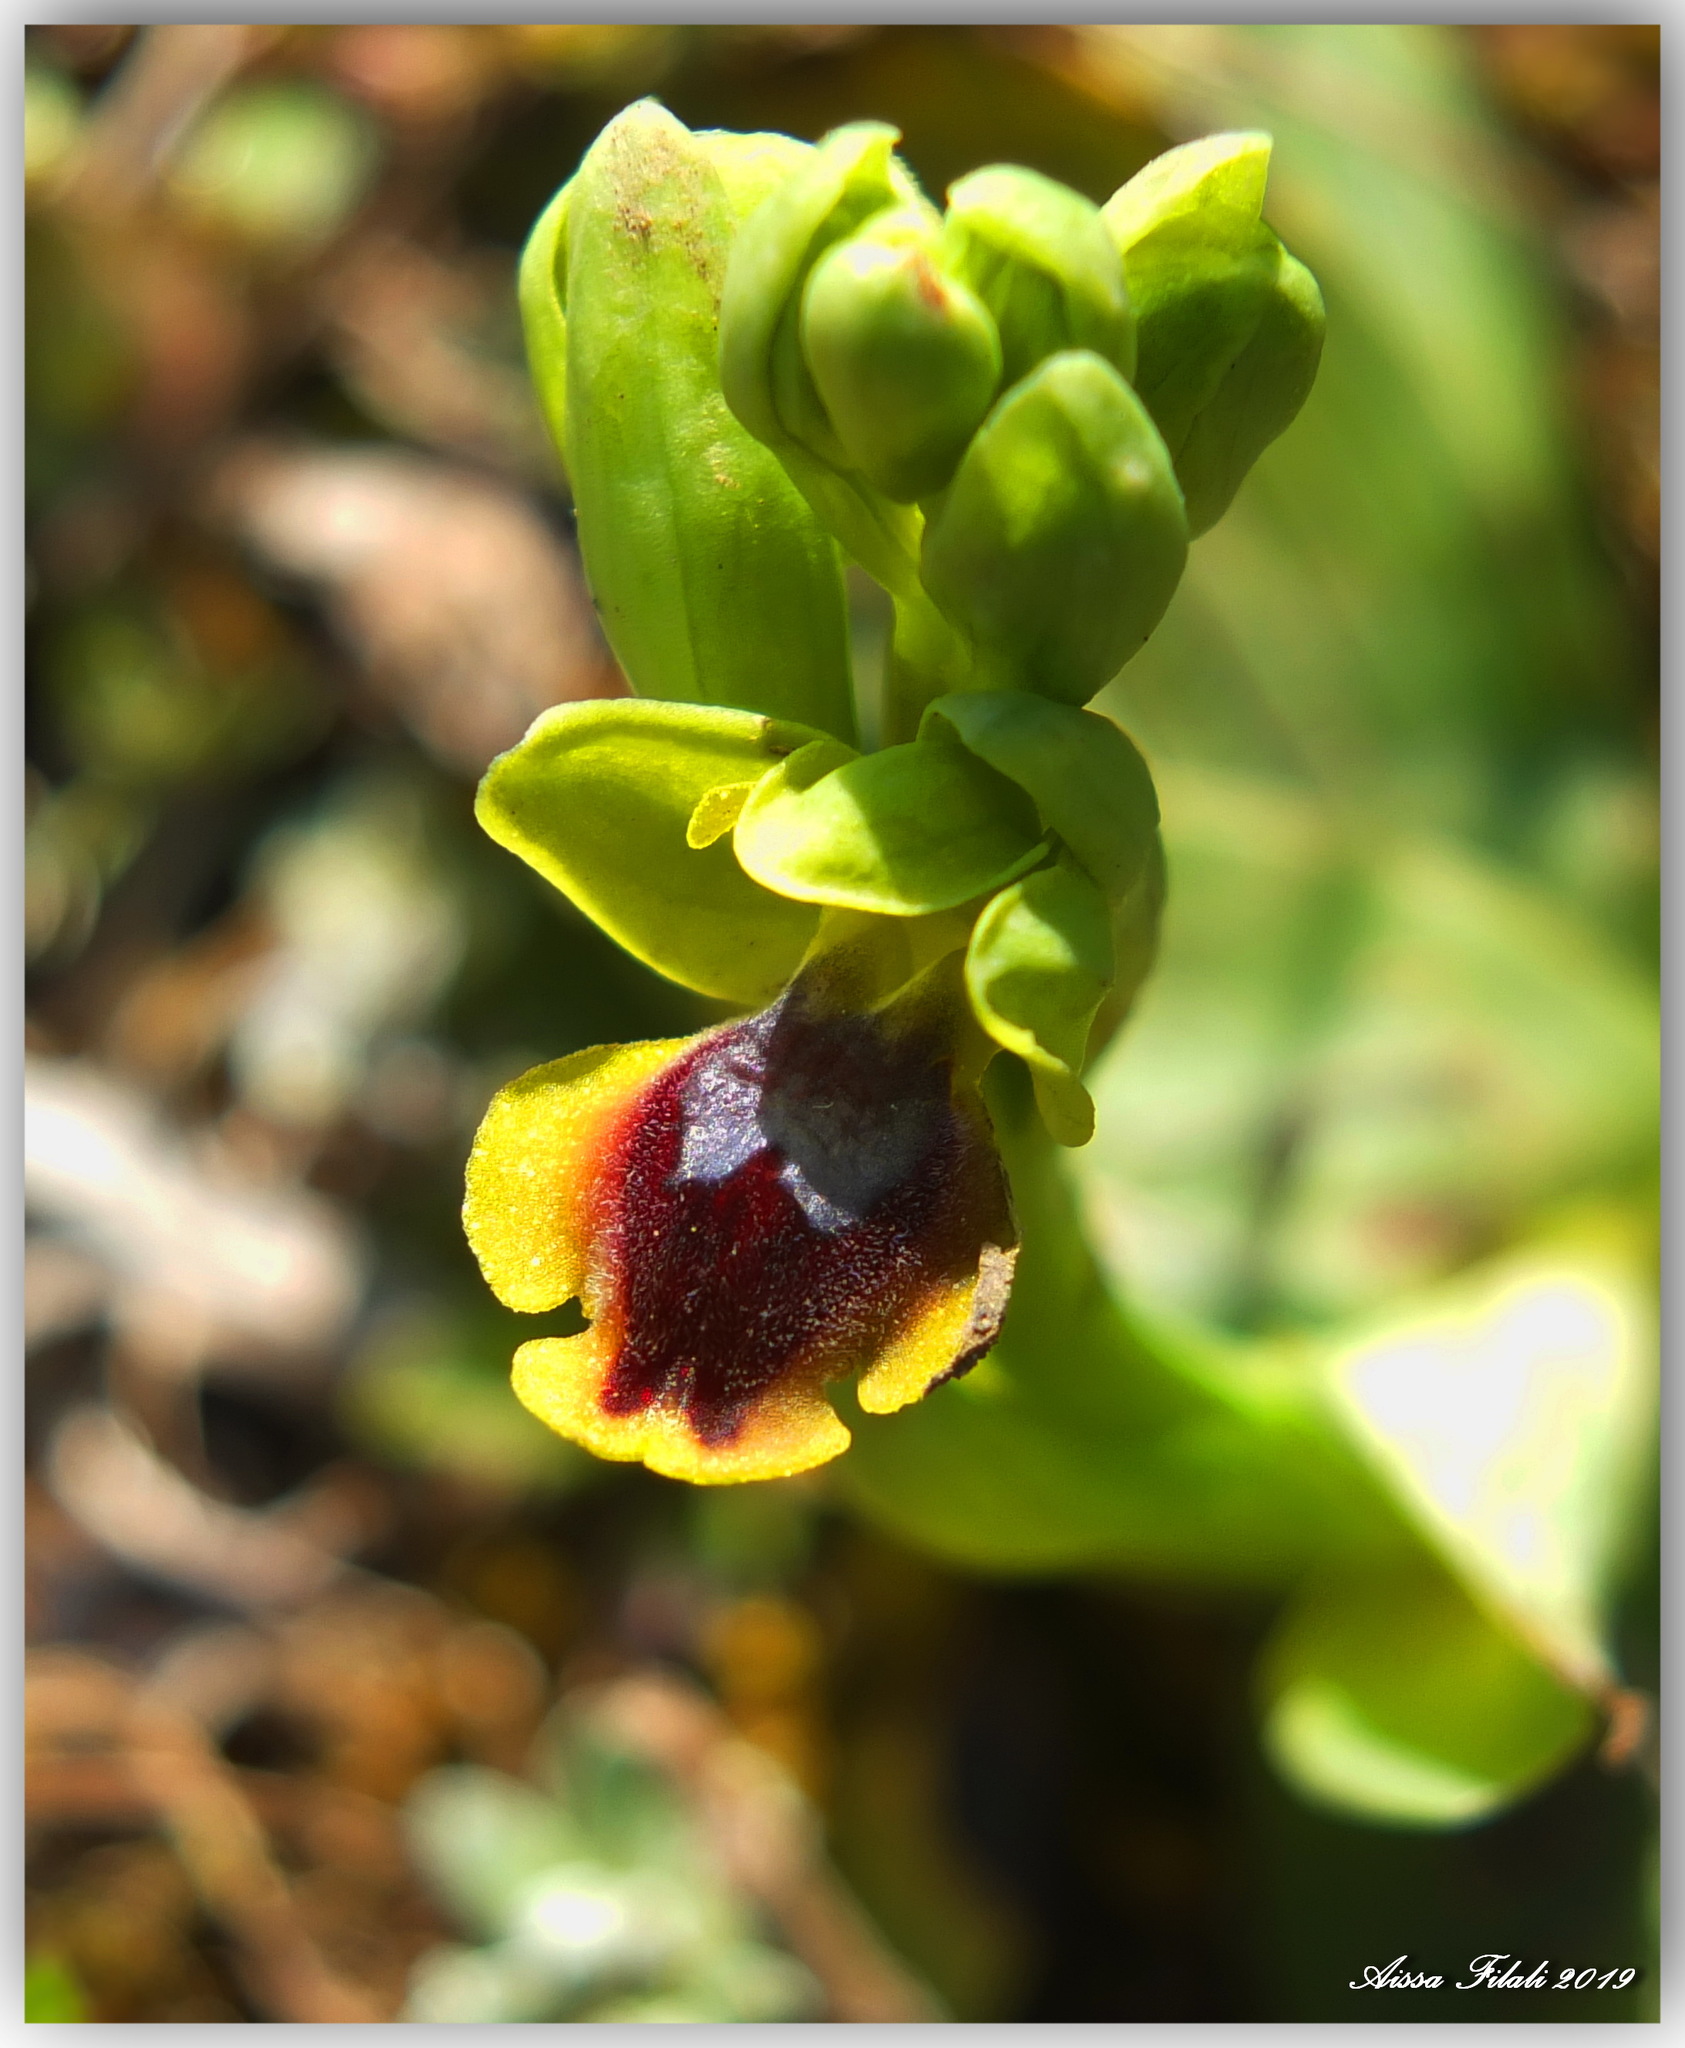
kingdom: Plantae
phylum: Tracheophyta
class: Liliopsida
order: Asparagales
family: Orchidaceae
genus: Ophrys
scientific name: Ophrys lutea
